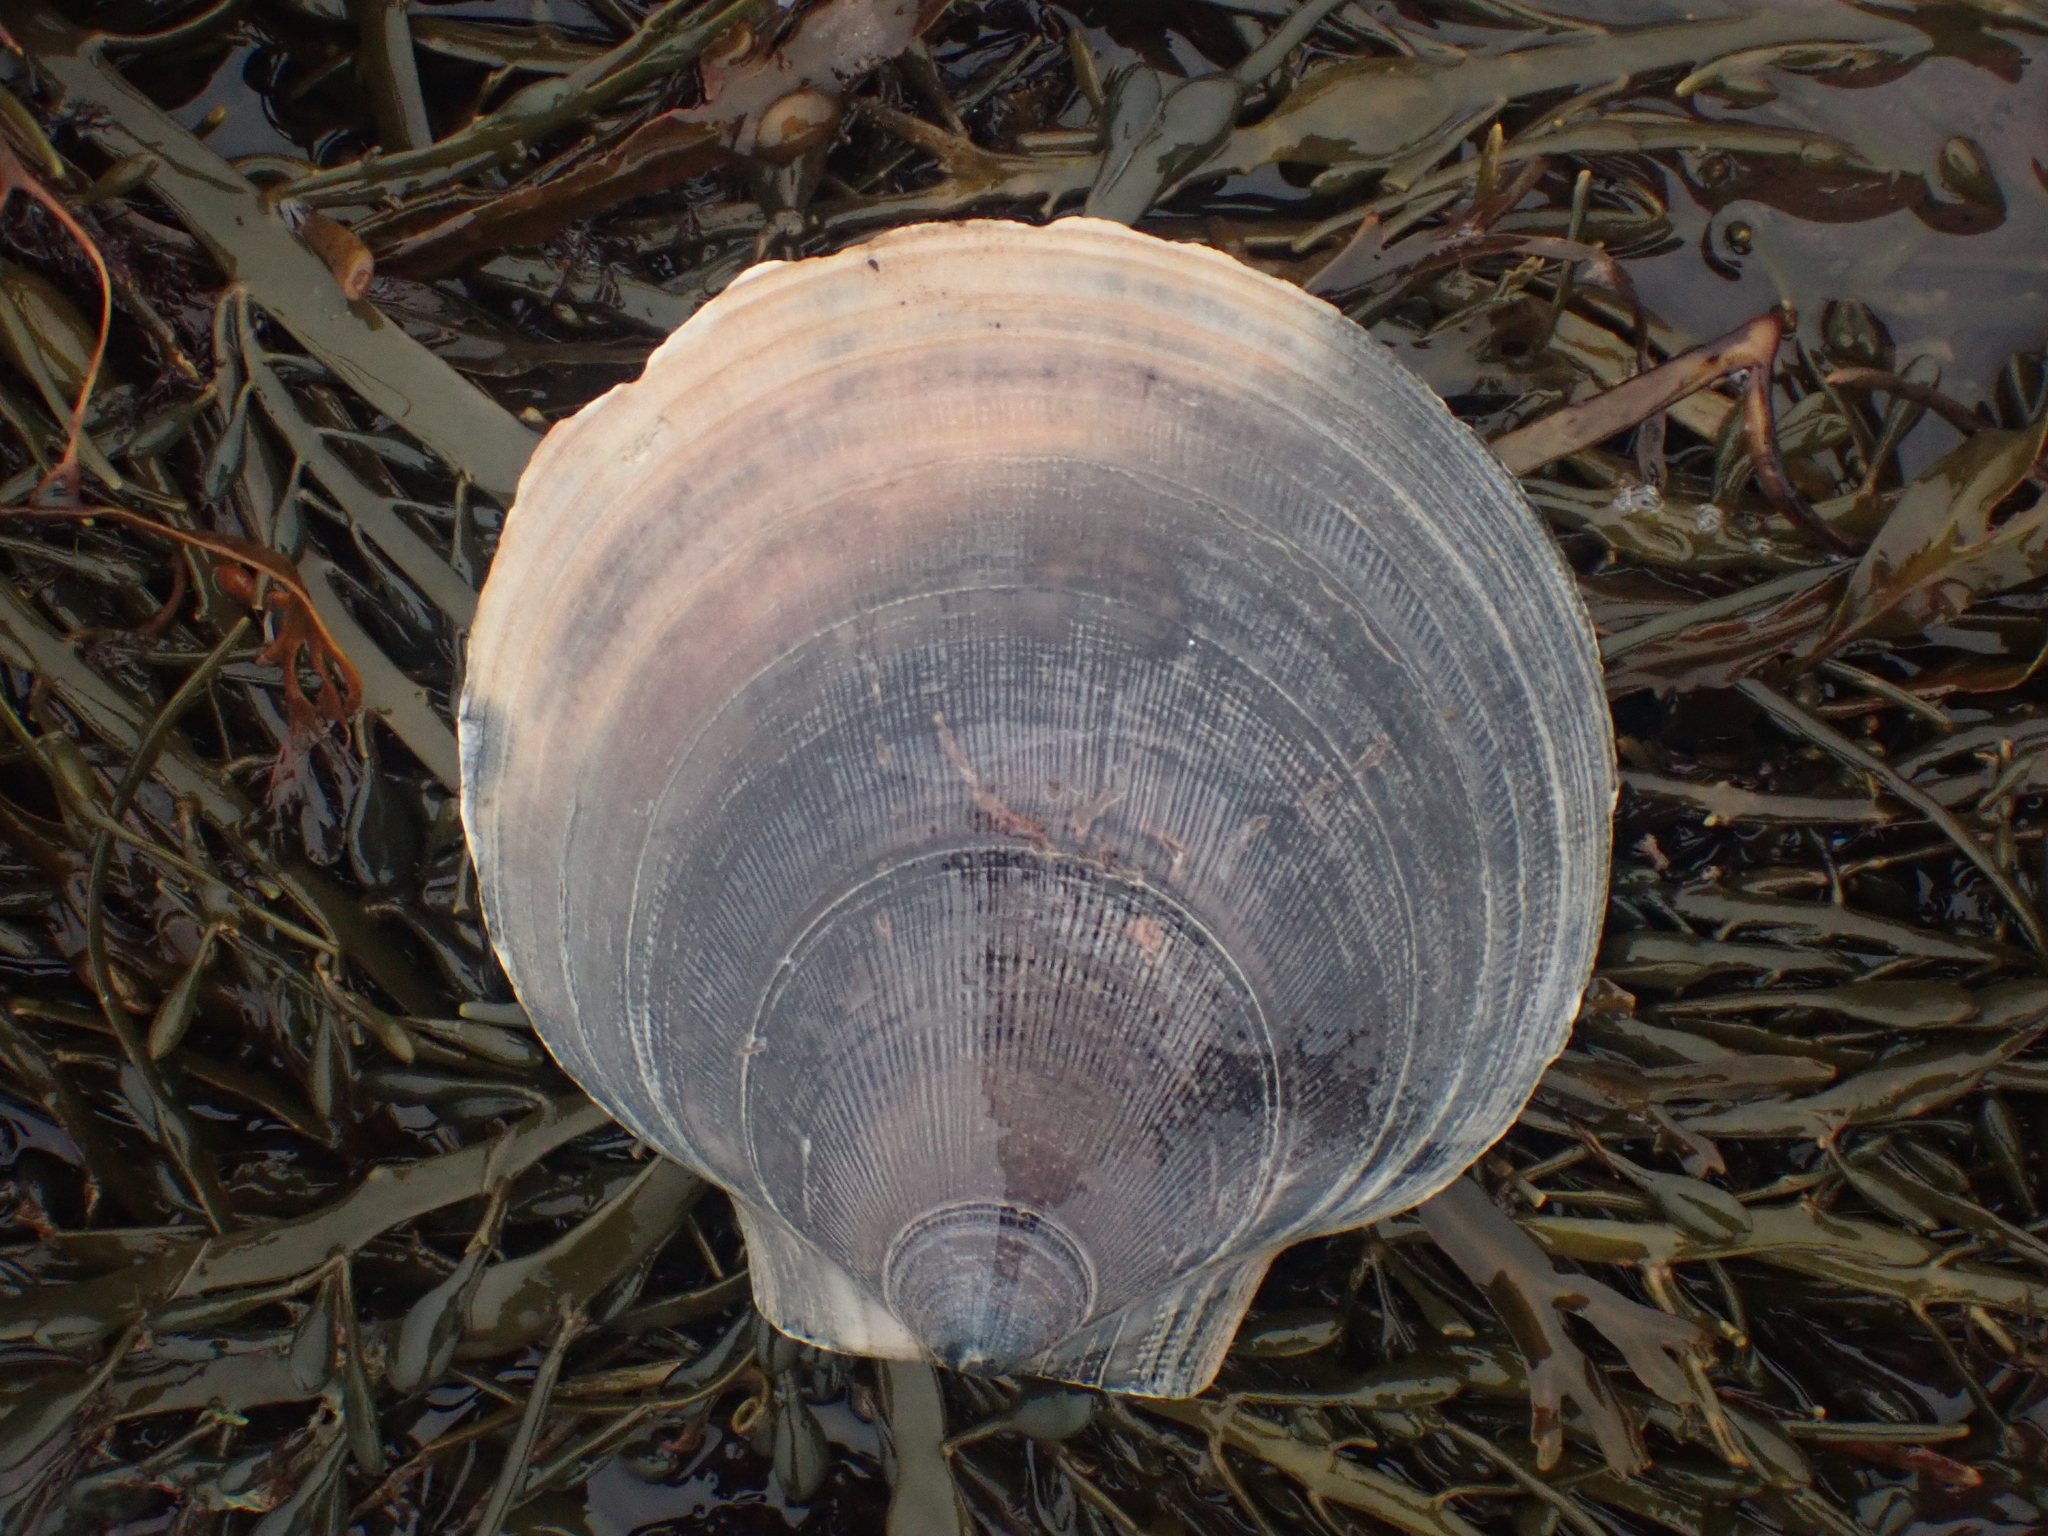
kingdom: Animalia
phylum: Mollusca
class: Bivalvia
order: Pectinida
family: Pectinidae
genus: Placopecten
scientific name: Placopecten magellanicus
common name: American sea scallop
